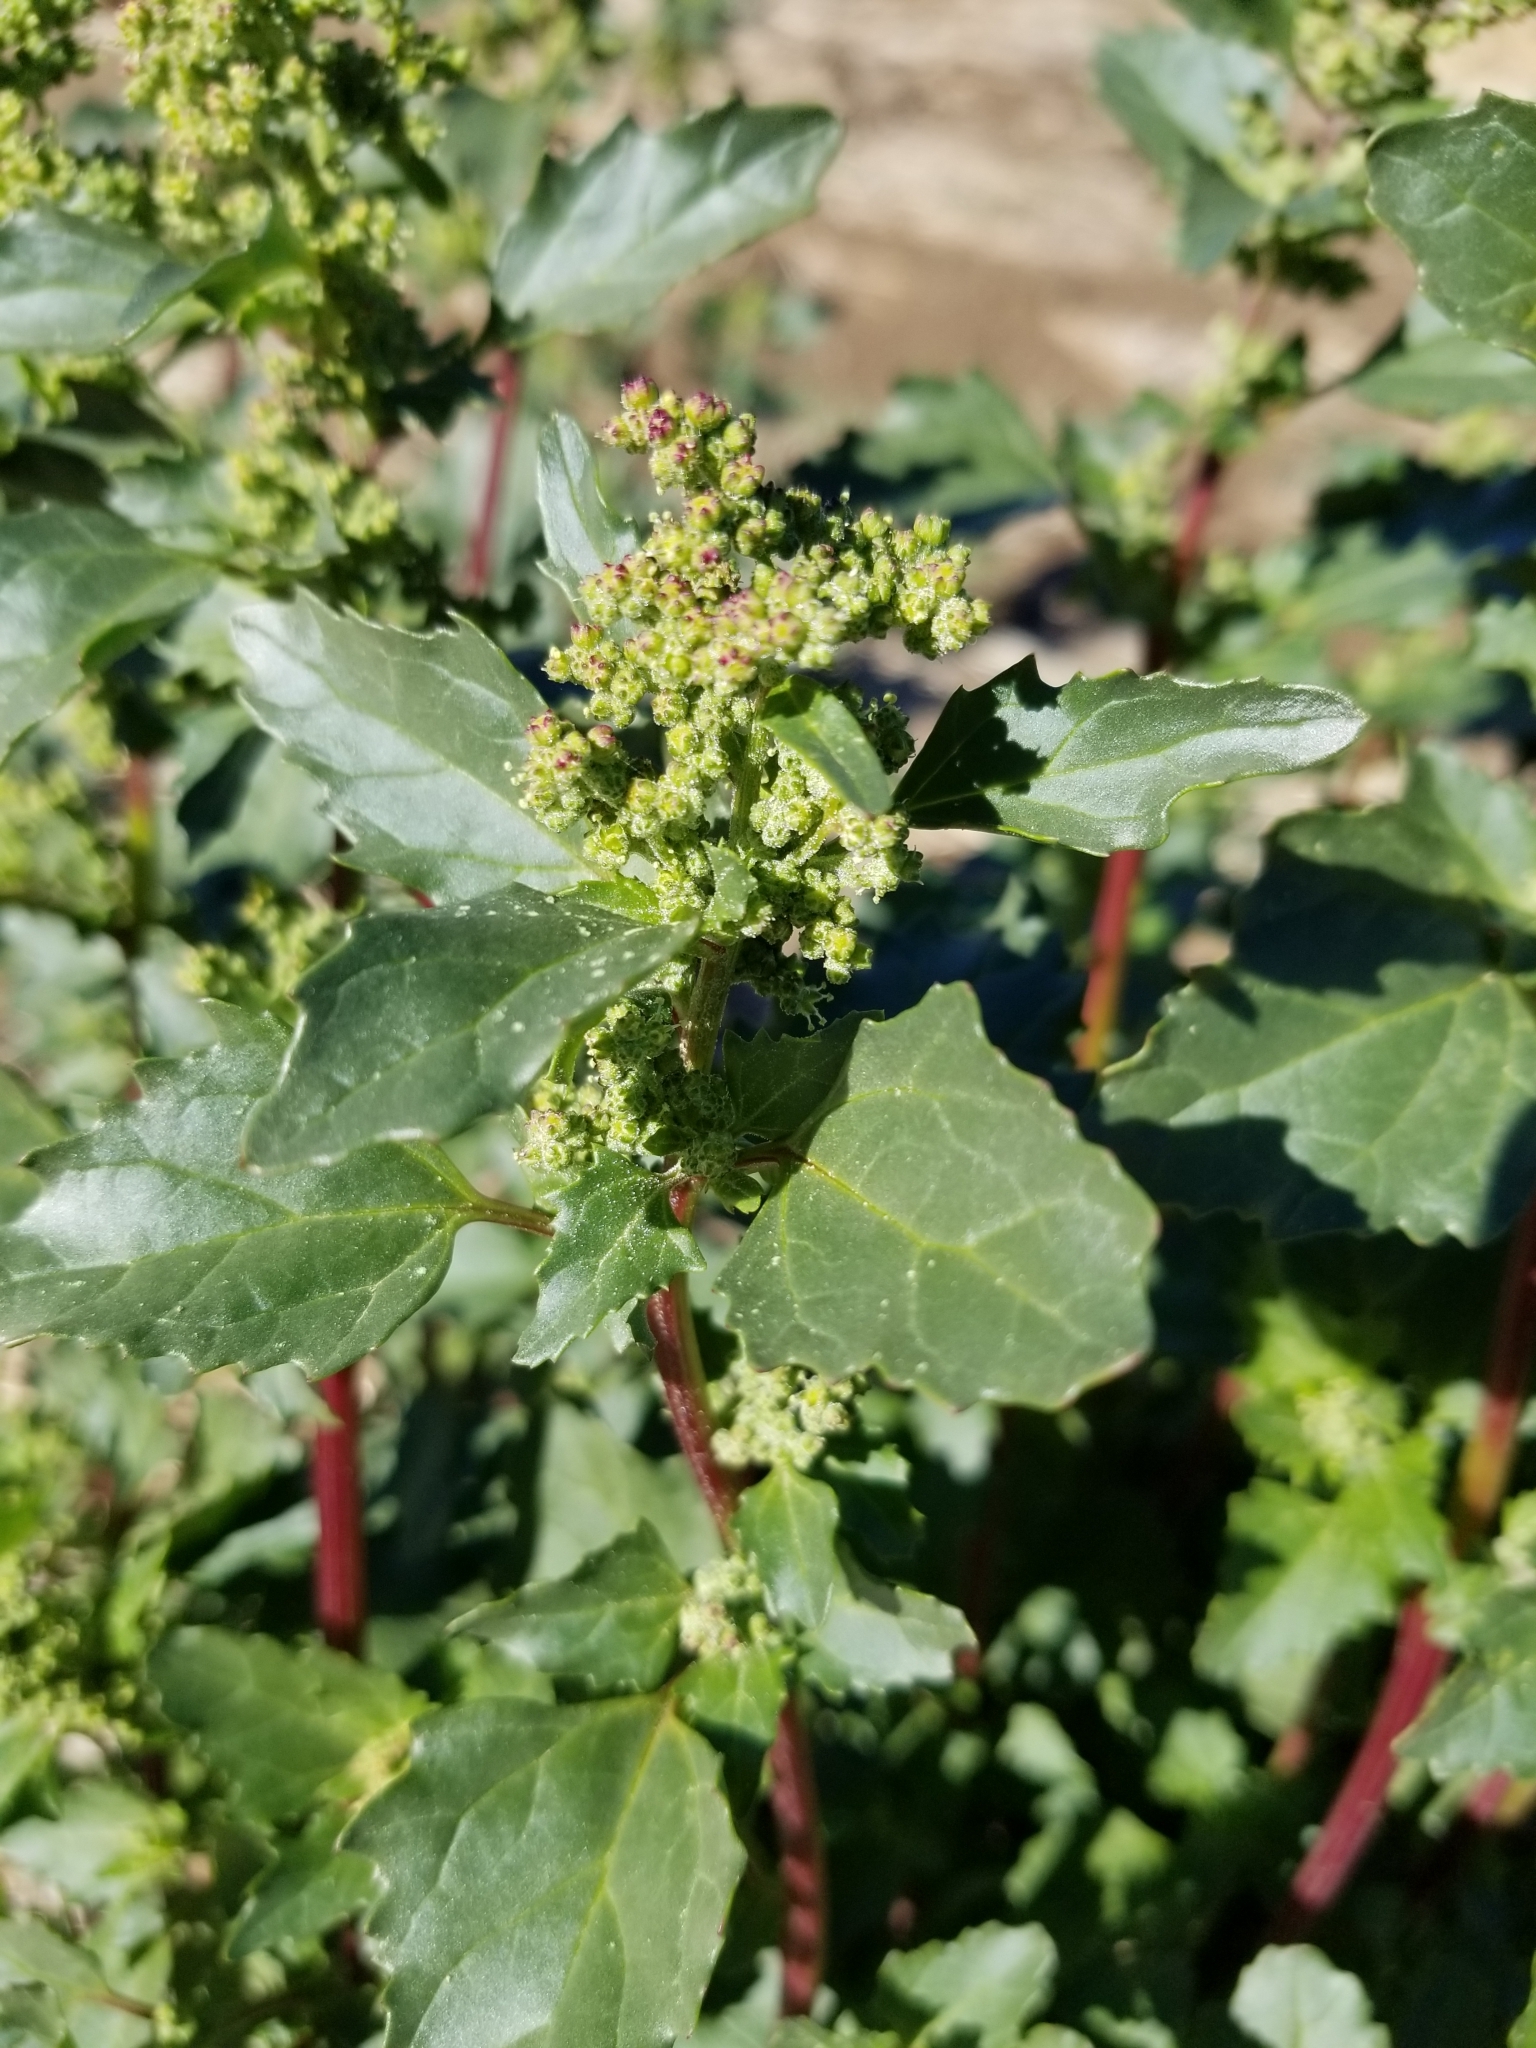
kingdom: Plantae
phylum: Tracheophyta
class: Magnoliopsida
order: Caryophyllales
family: Amaranthaceae
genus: Chenopodiastrum
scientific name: Chenopodiastrum murale
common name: Sowbane
